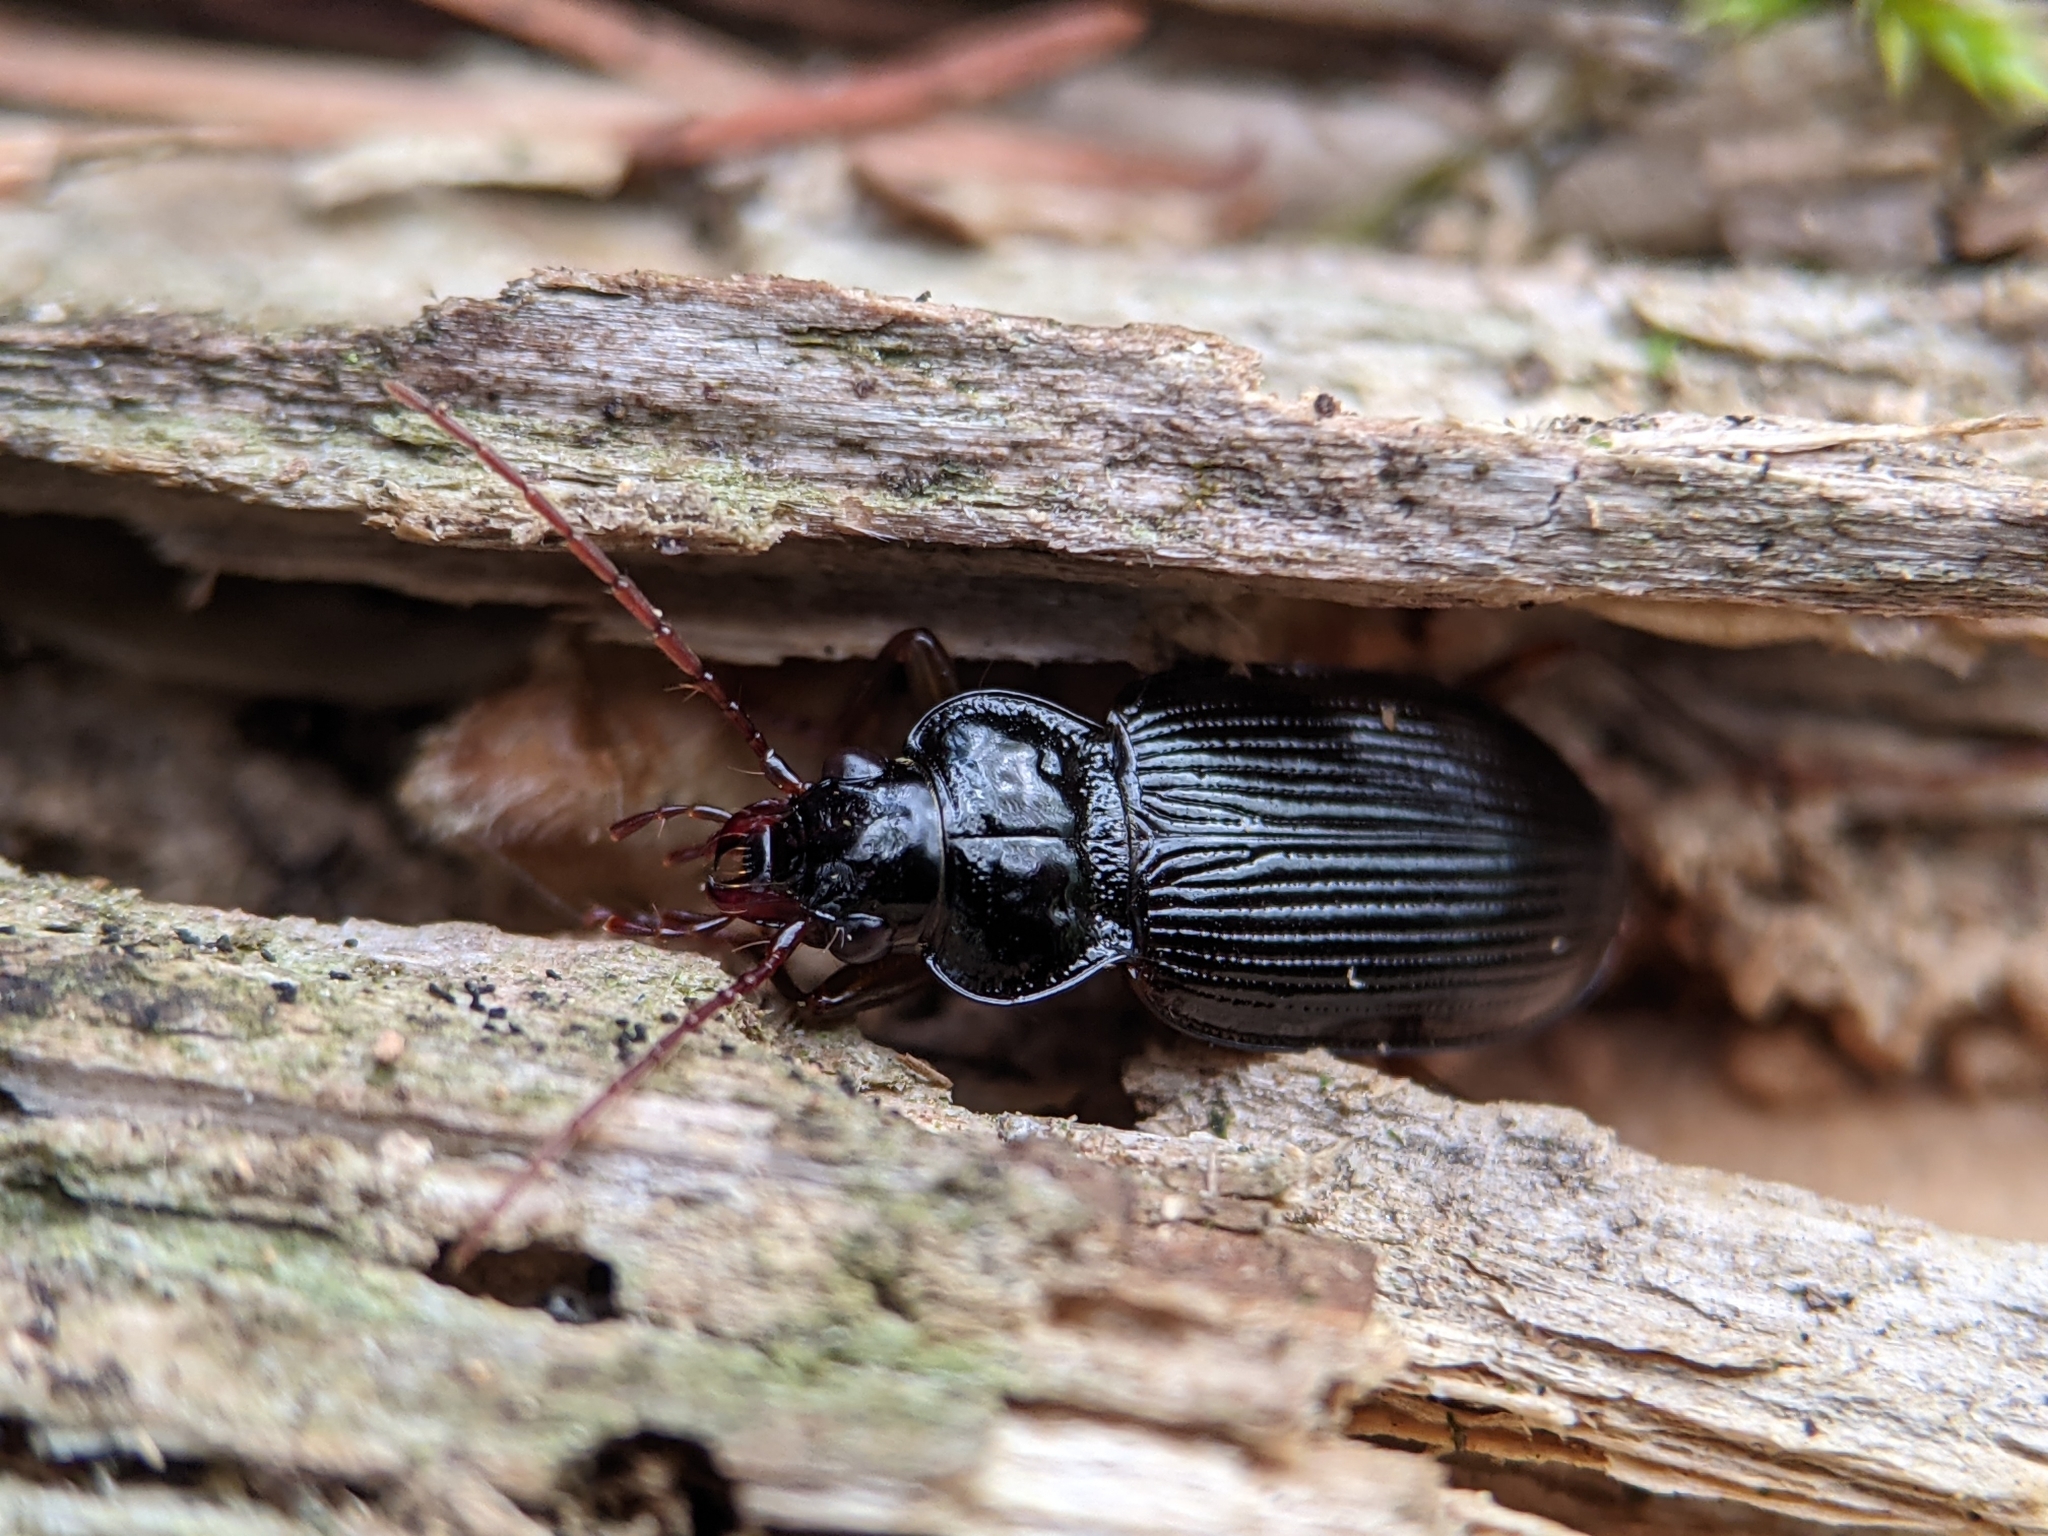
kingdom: Animalia
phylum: Arthropoda
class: Insecta
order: Coleoptera
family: Carabidae
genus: Nebria
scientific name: Nebria brevicollis
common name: Short-necked gazelle beetle
